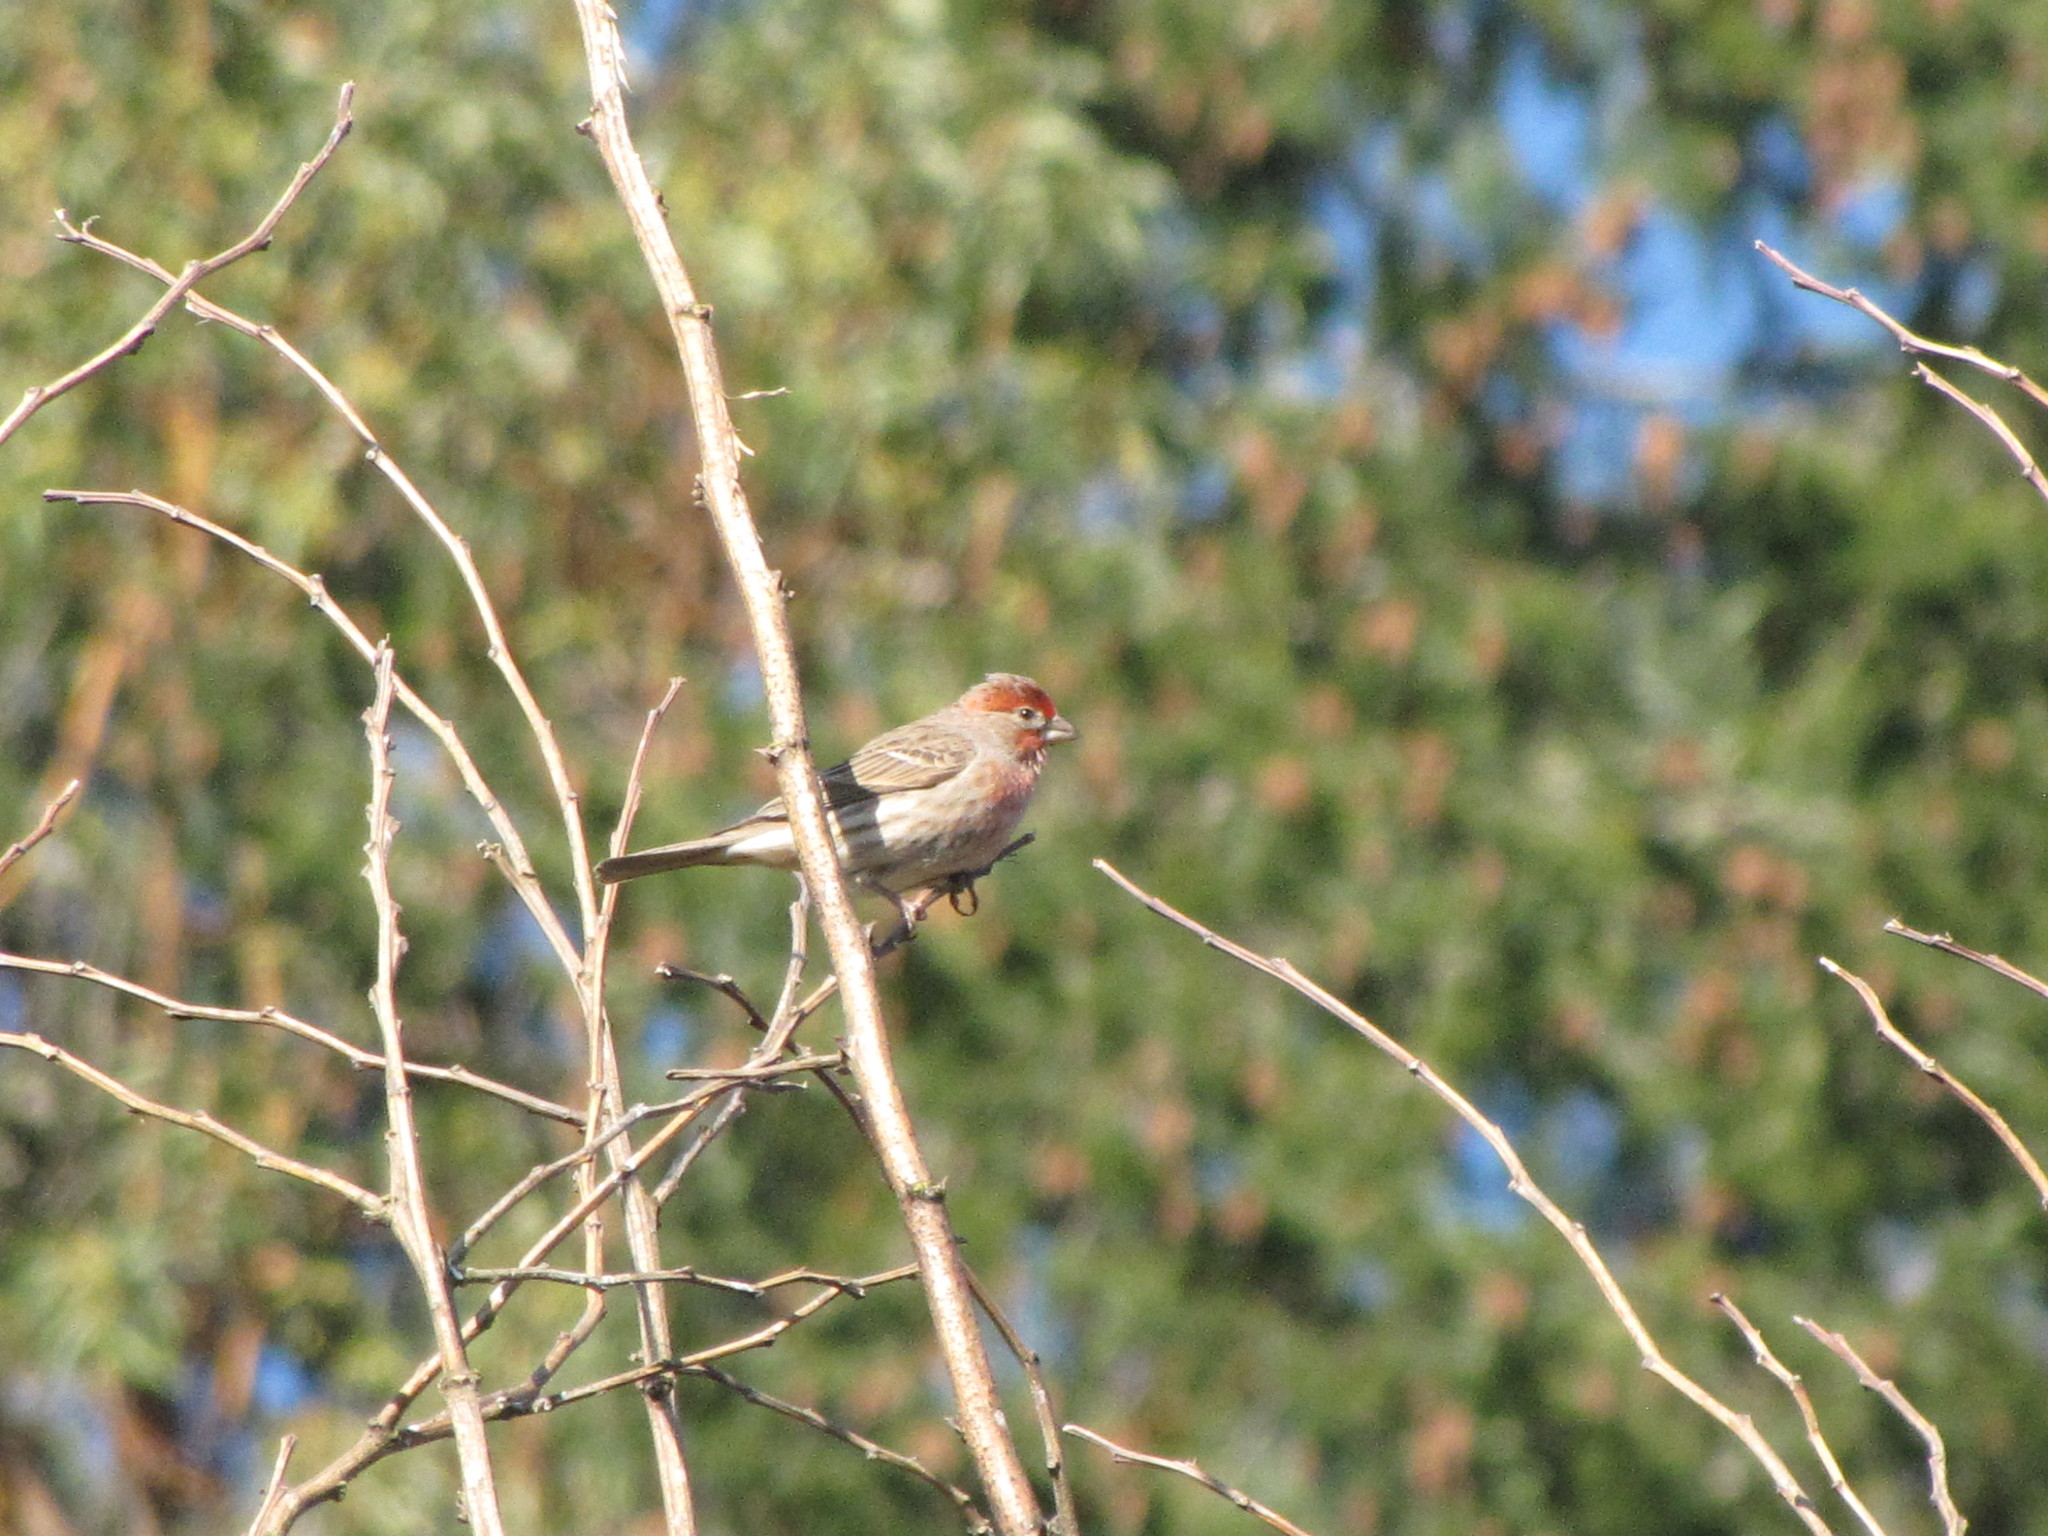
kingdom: Animalia
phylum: Chordata
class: Aves
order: Passeriformes
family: Fringillidae
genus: Haemorhous
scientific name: Haemorhous mexicanus
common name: House finch
